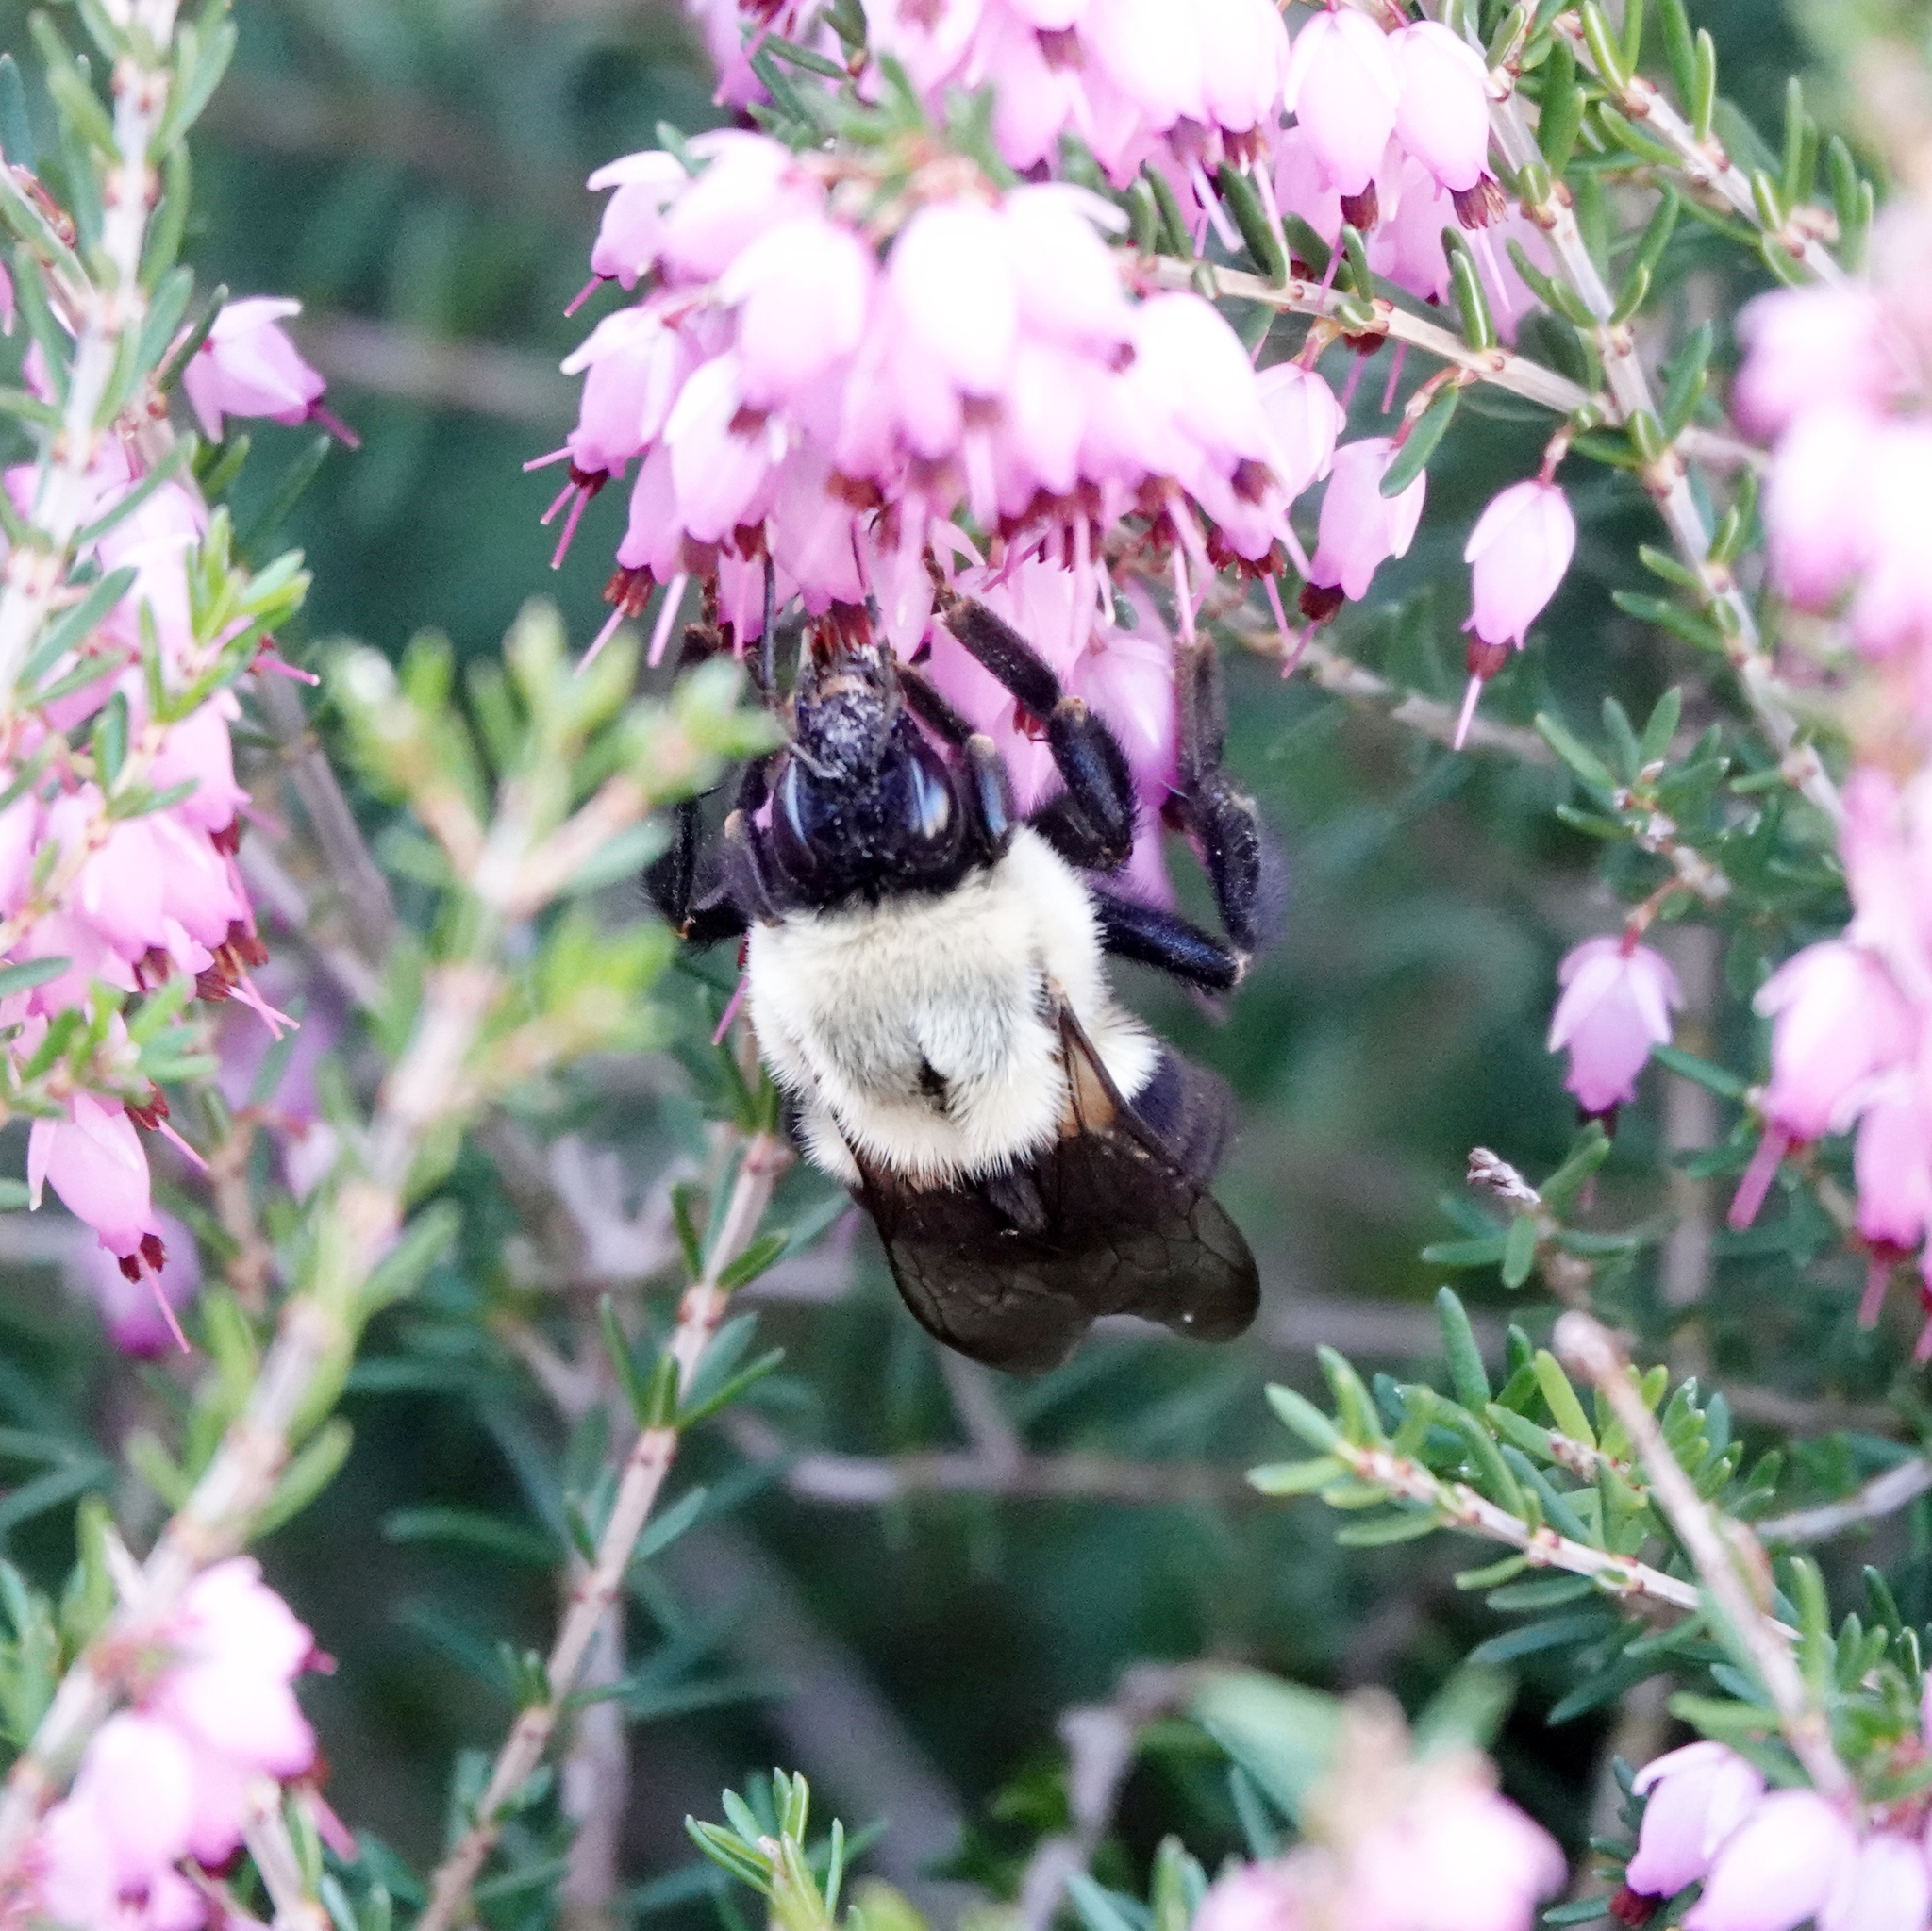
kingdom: Animalia
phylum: Arthropoda
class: Insecta
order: Hymenoptera
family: Apidae
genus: Bombus
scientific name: Bombus impatiens
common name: Common eastern bumble bee
